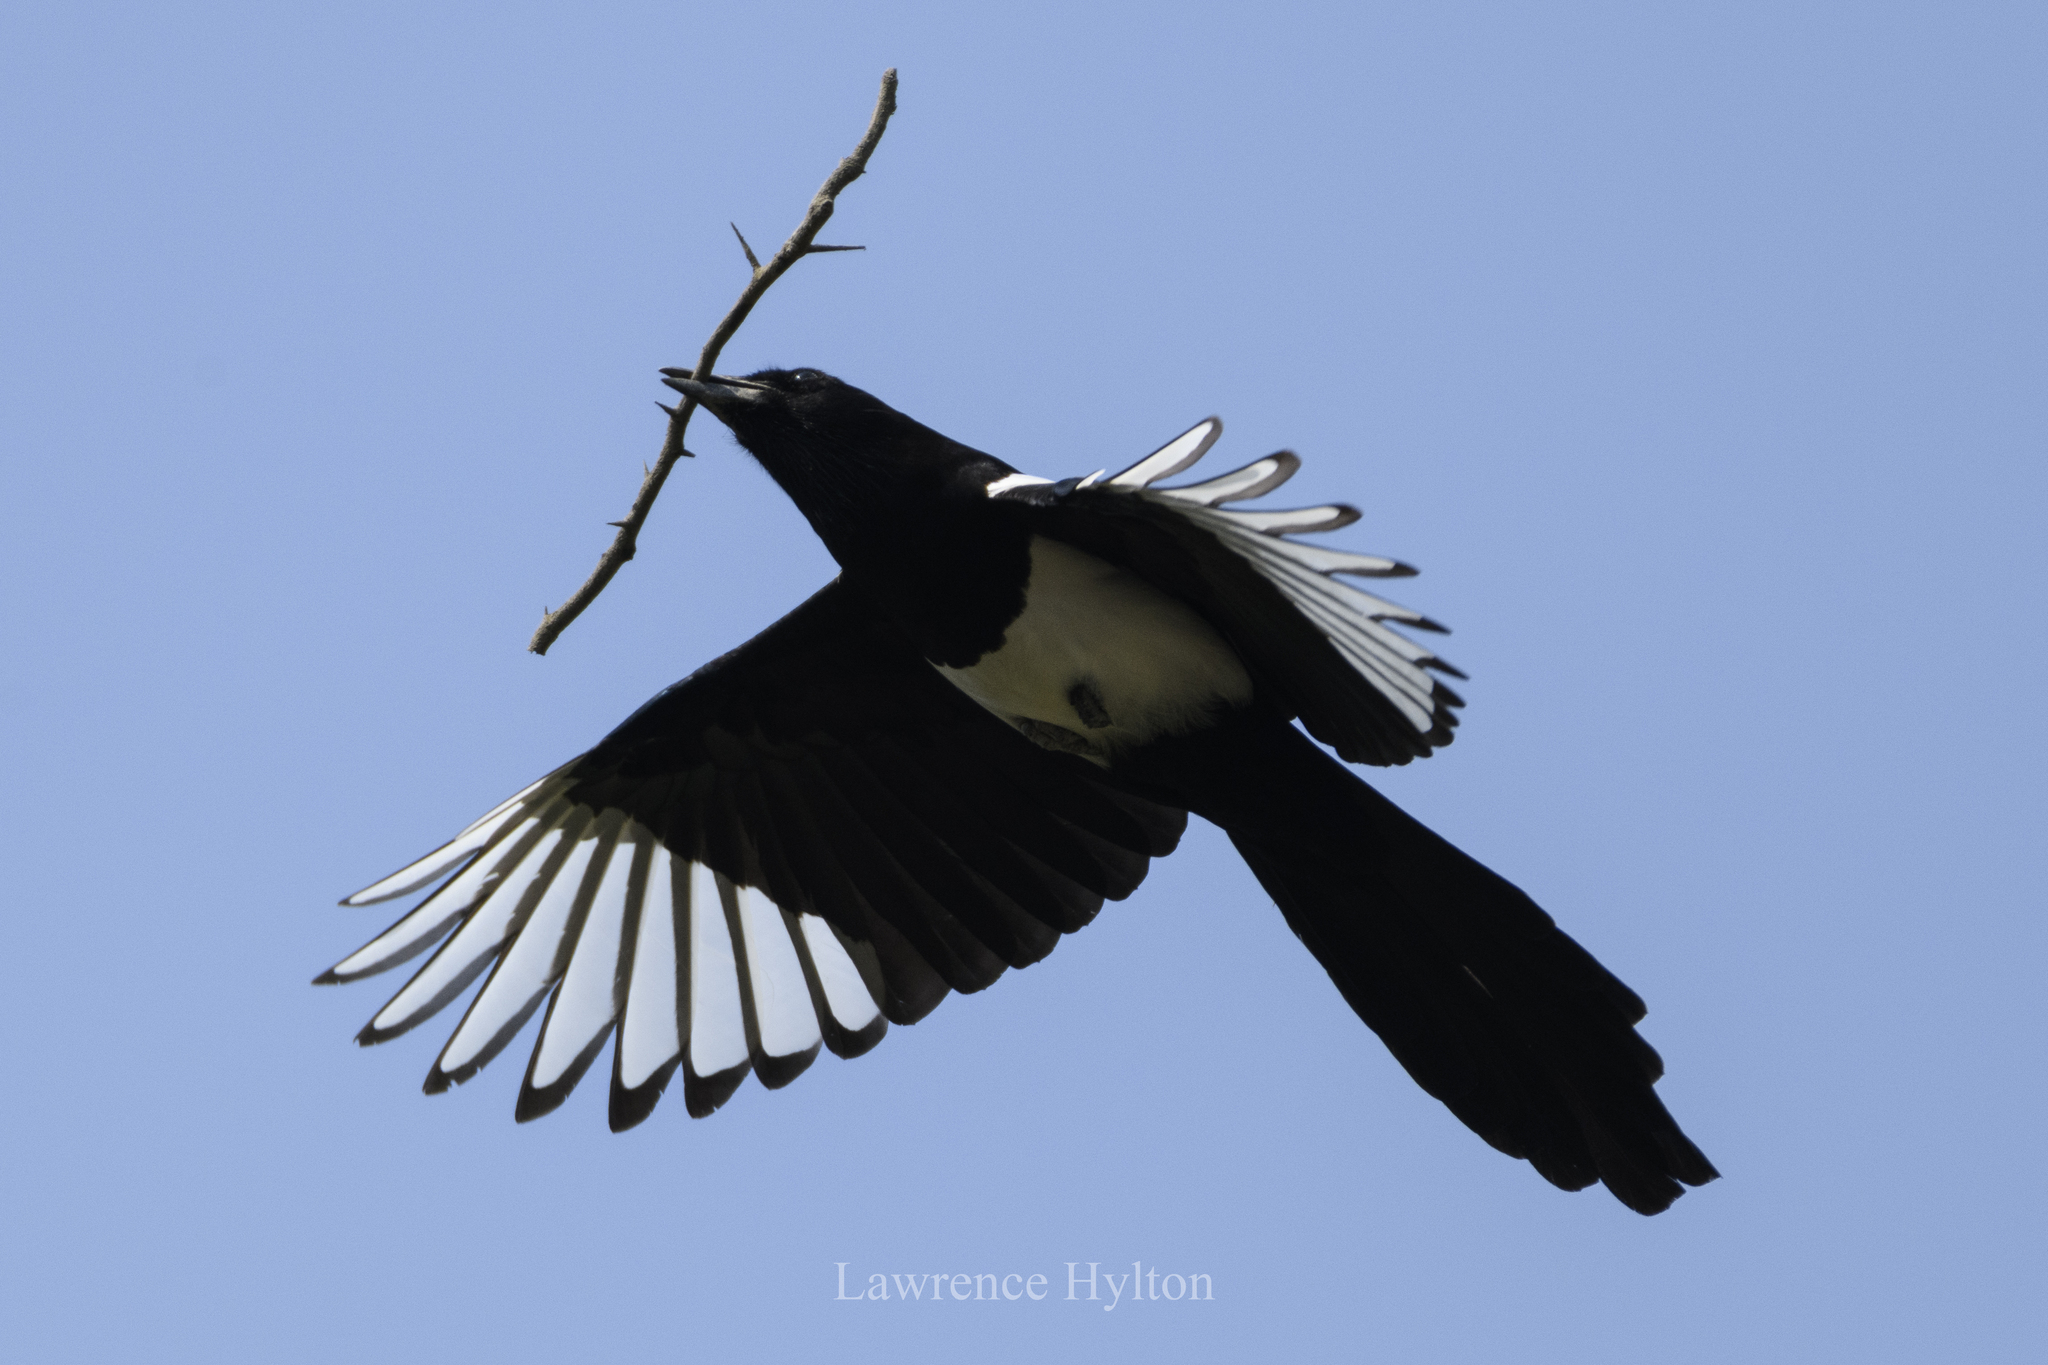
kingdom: Animalia
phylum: Chordata
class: Aves
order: Passeriformes
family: Corvidae
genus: Pica
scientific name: Pica serica
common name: Oriental magpie
